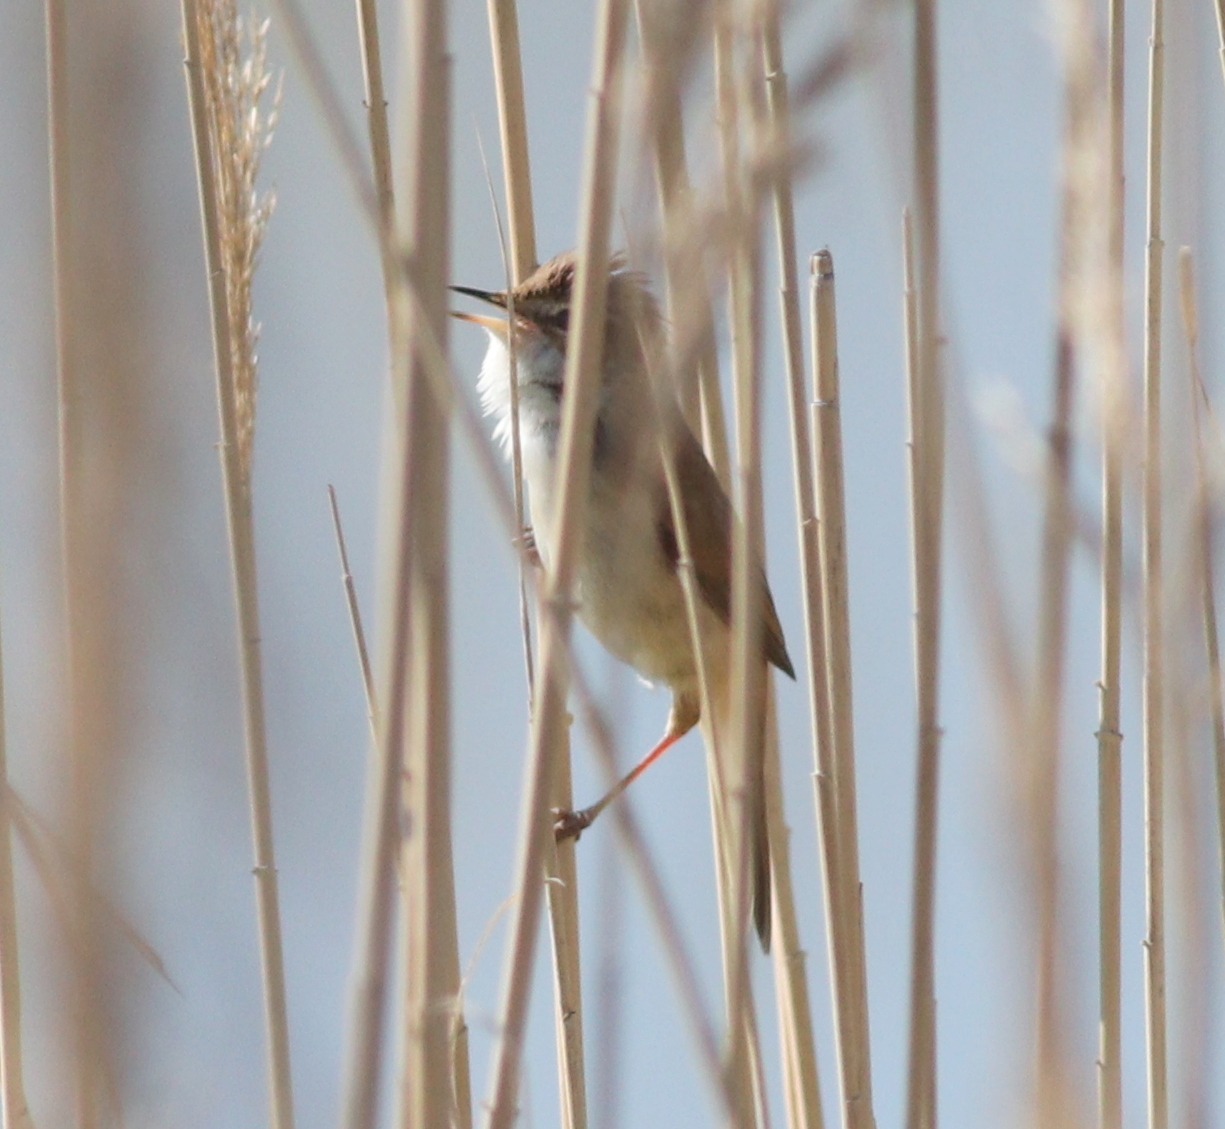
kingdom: Animalia
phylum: Chordata
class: Aves
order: Passeriformes
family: Acrocephalidae
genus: Acrocephalus
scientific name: Acrocephalus agricola
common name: Paddyfield warbler
